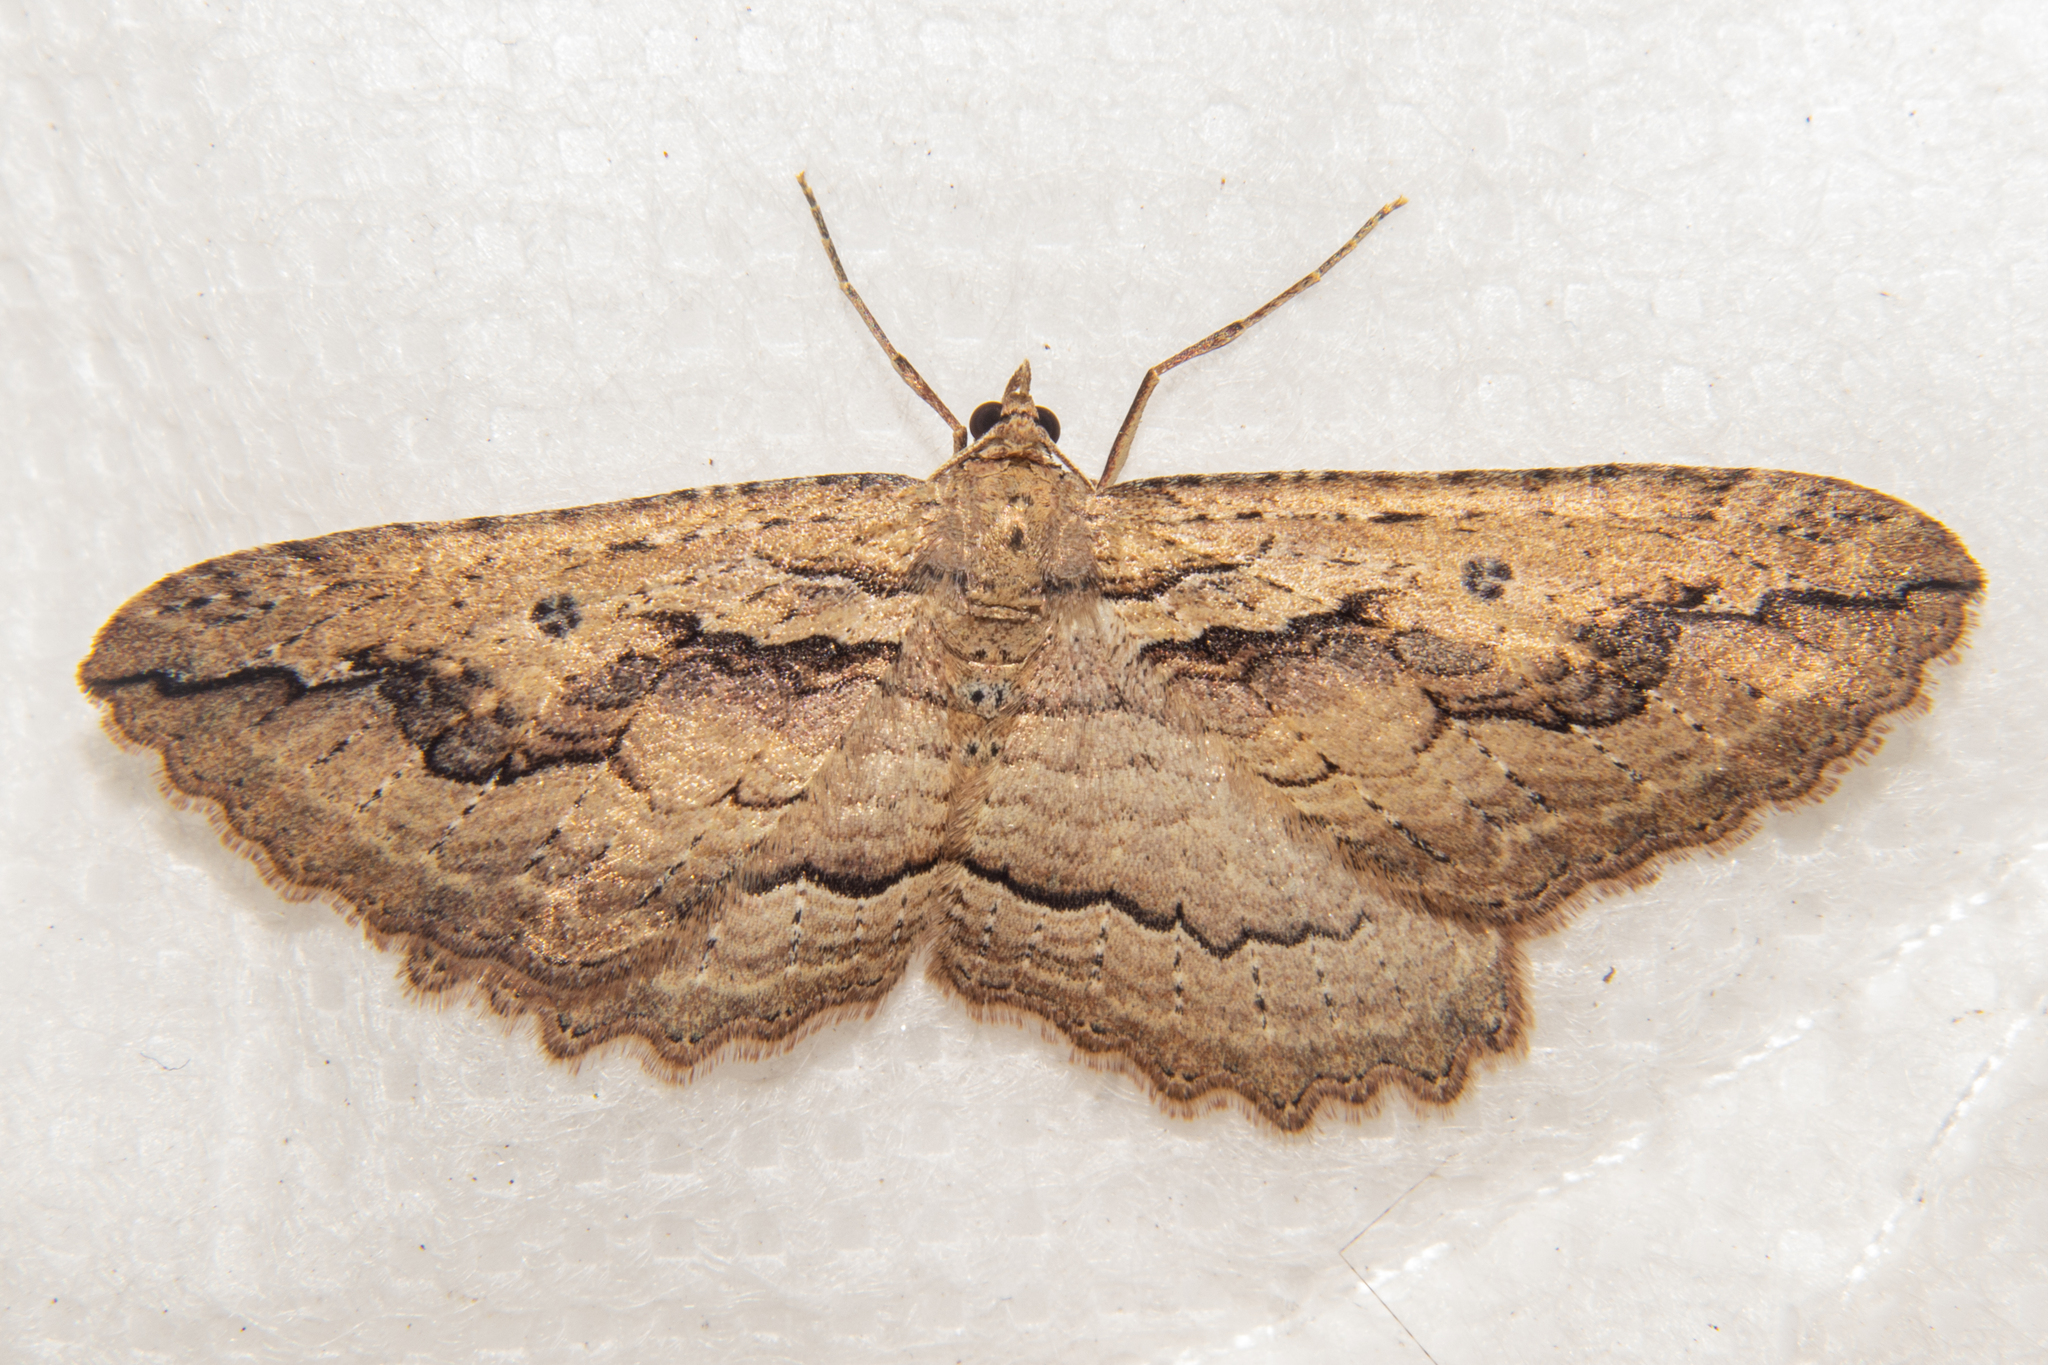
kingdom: Animalia
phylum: Arthropoda
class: Insecta
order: Lepidoptera
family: Geometridae
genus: Austrocidaria
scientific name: Austrocidaria gobiata
